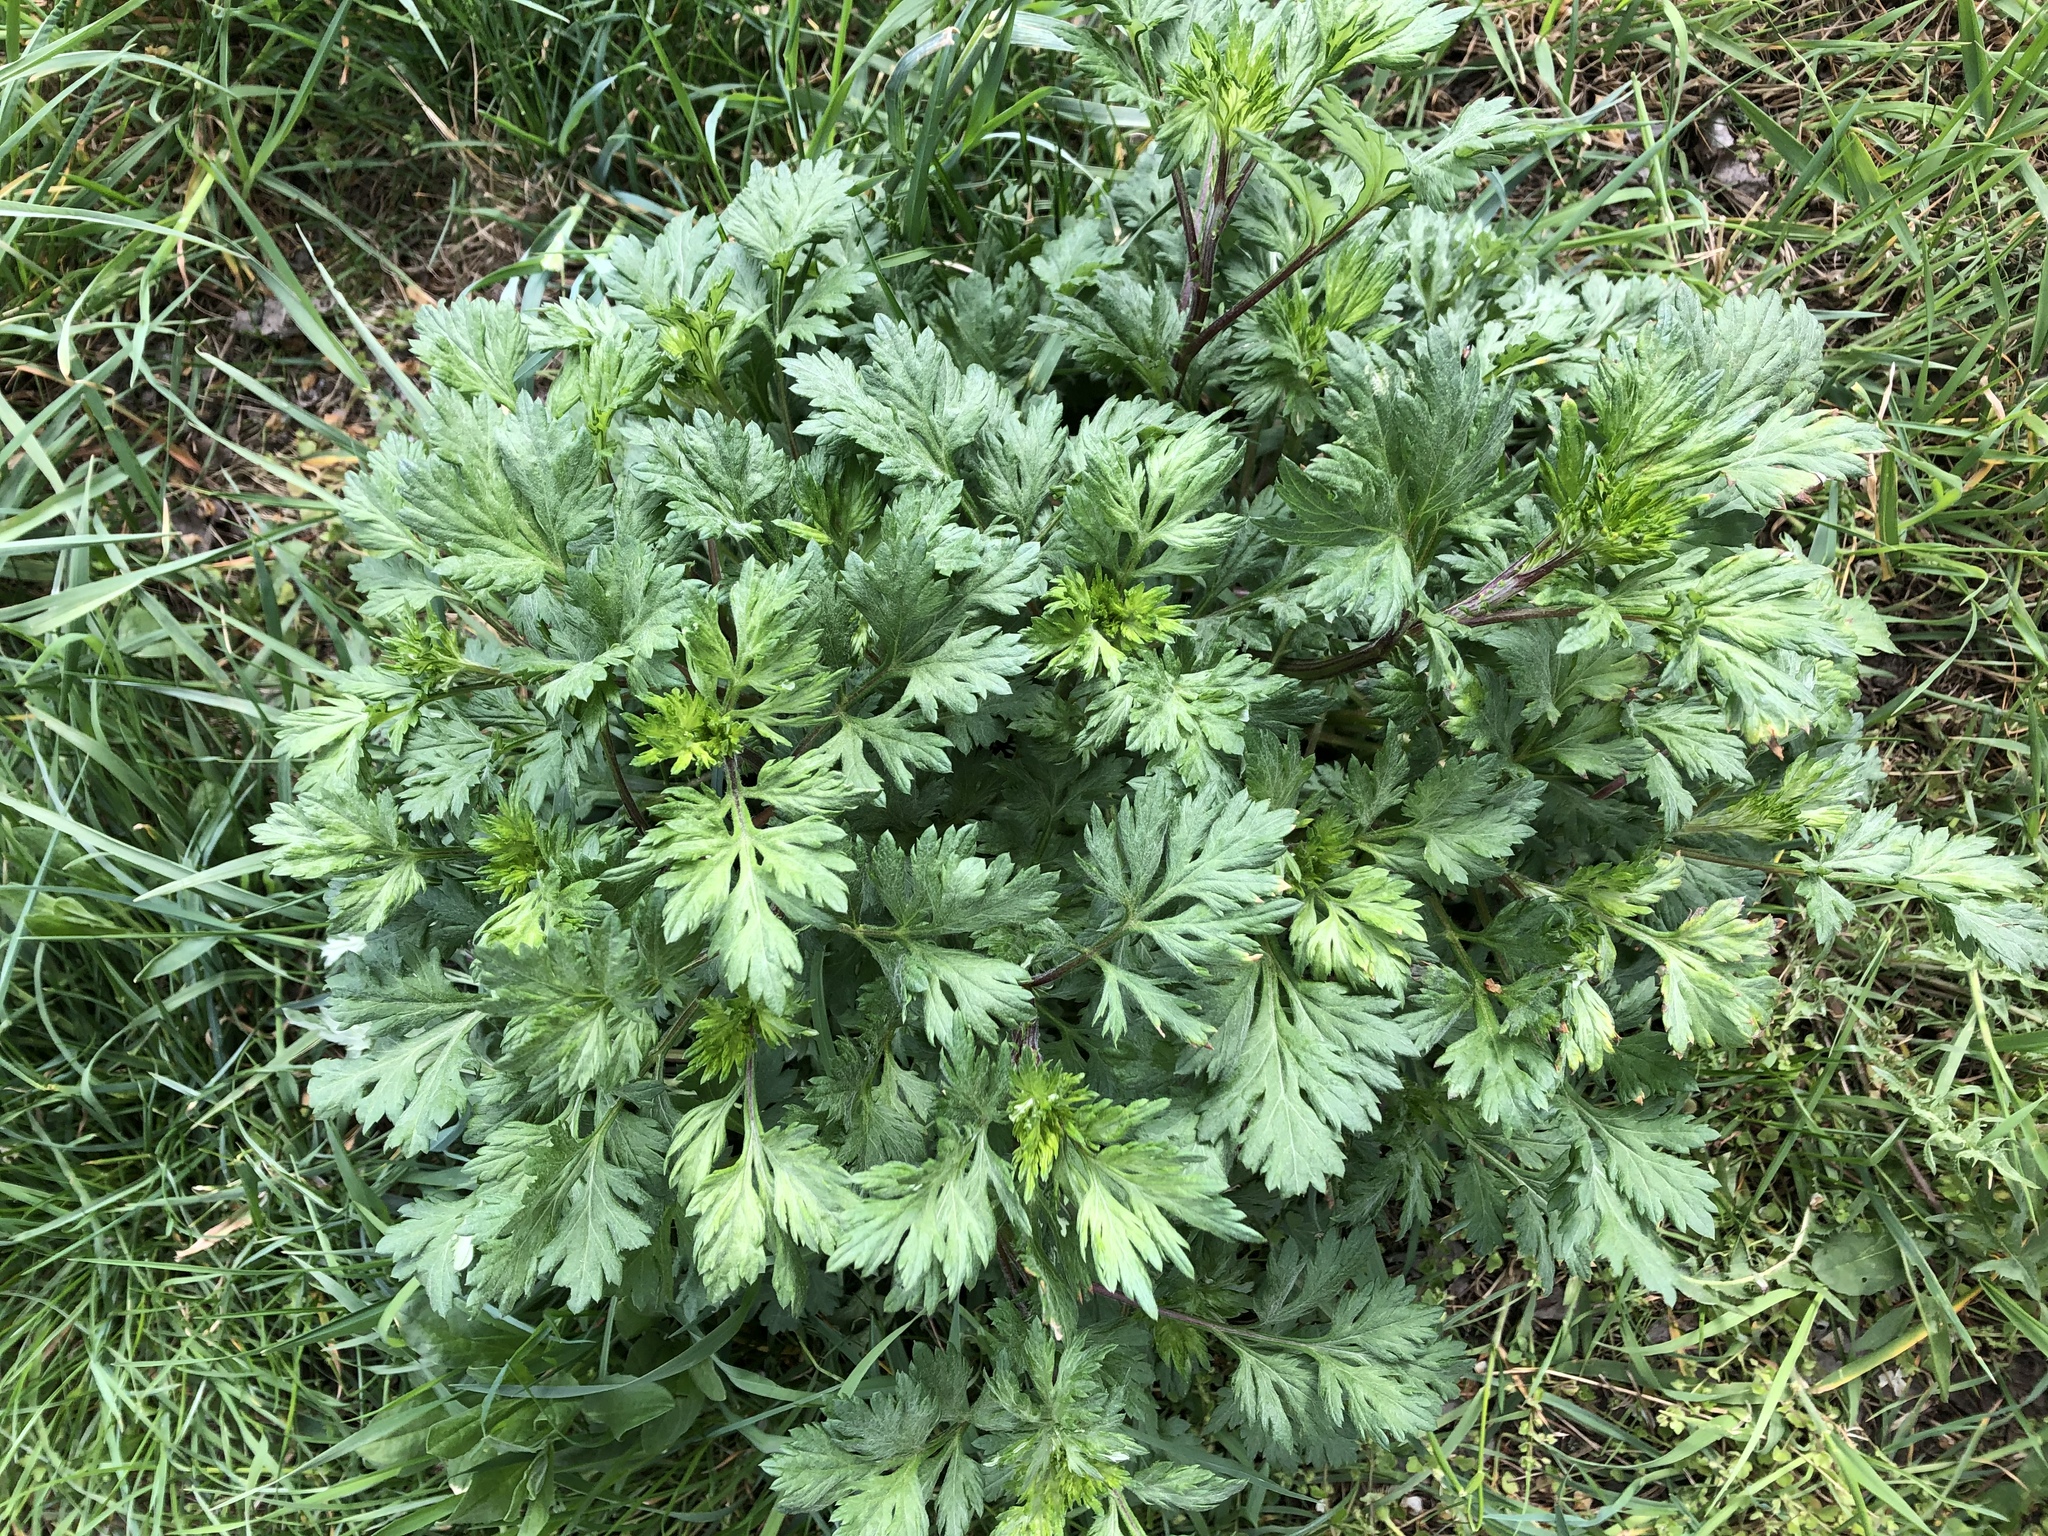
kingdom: Plantae
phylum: Tracheophyta
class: Magnoliopsida
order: Asterales
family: Asteraceae
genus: Artemisia
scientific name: Artemisia vulgaris
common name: Mugwort
